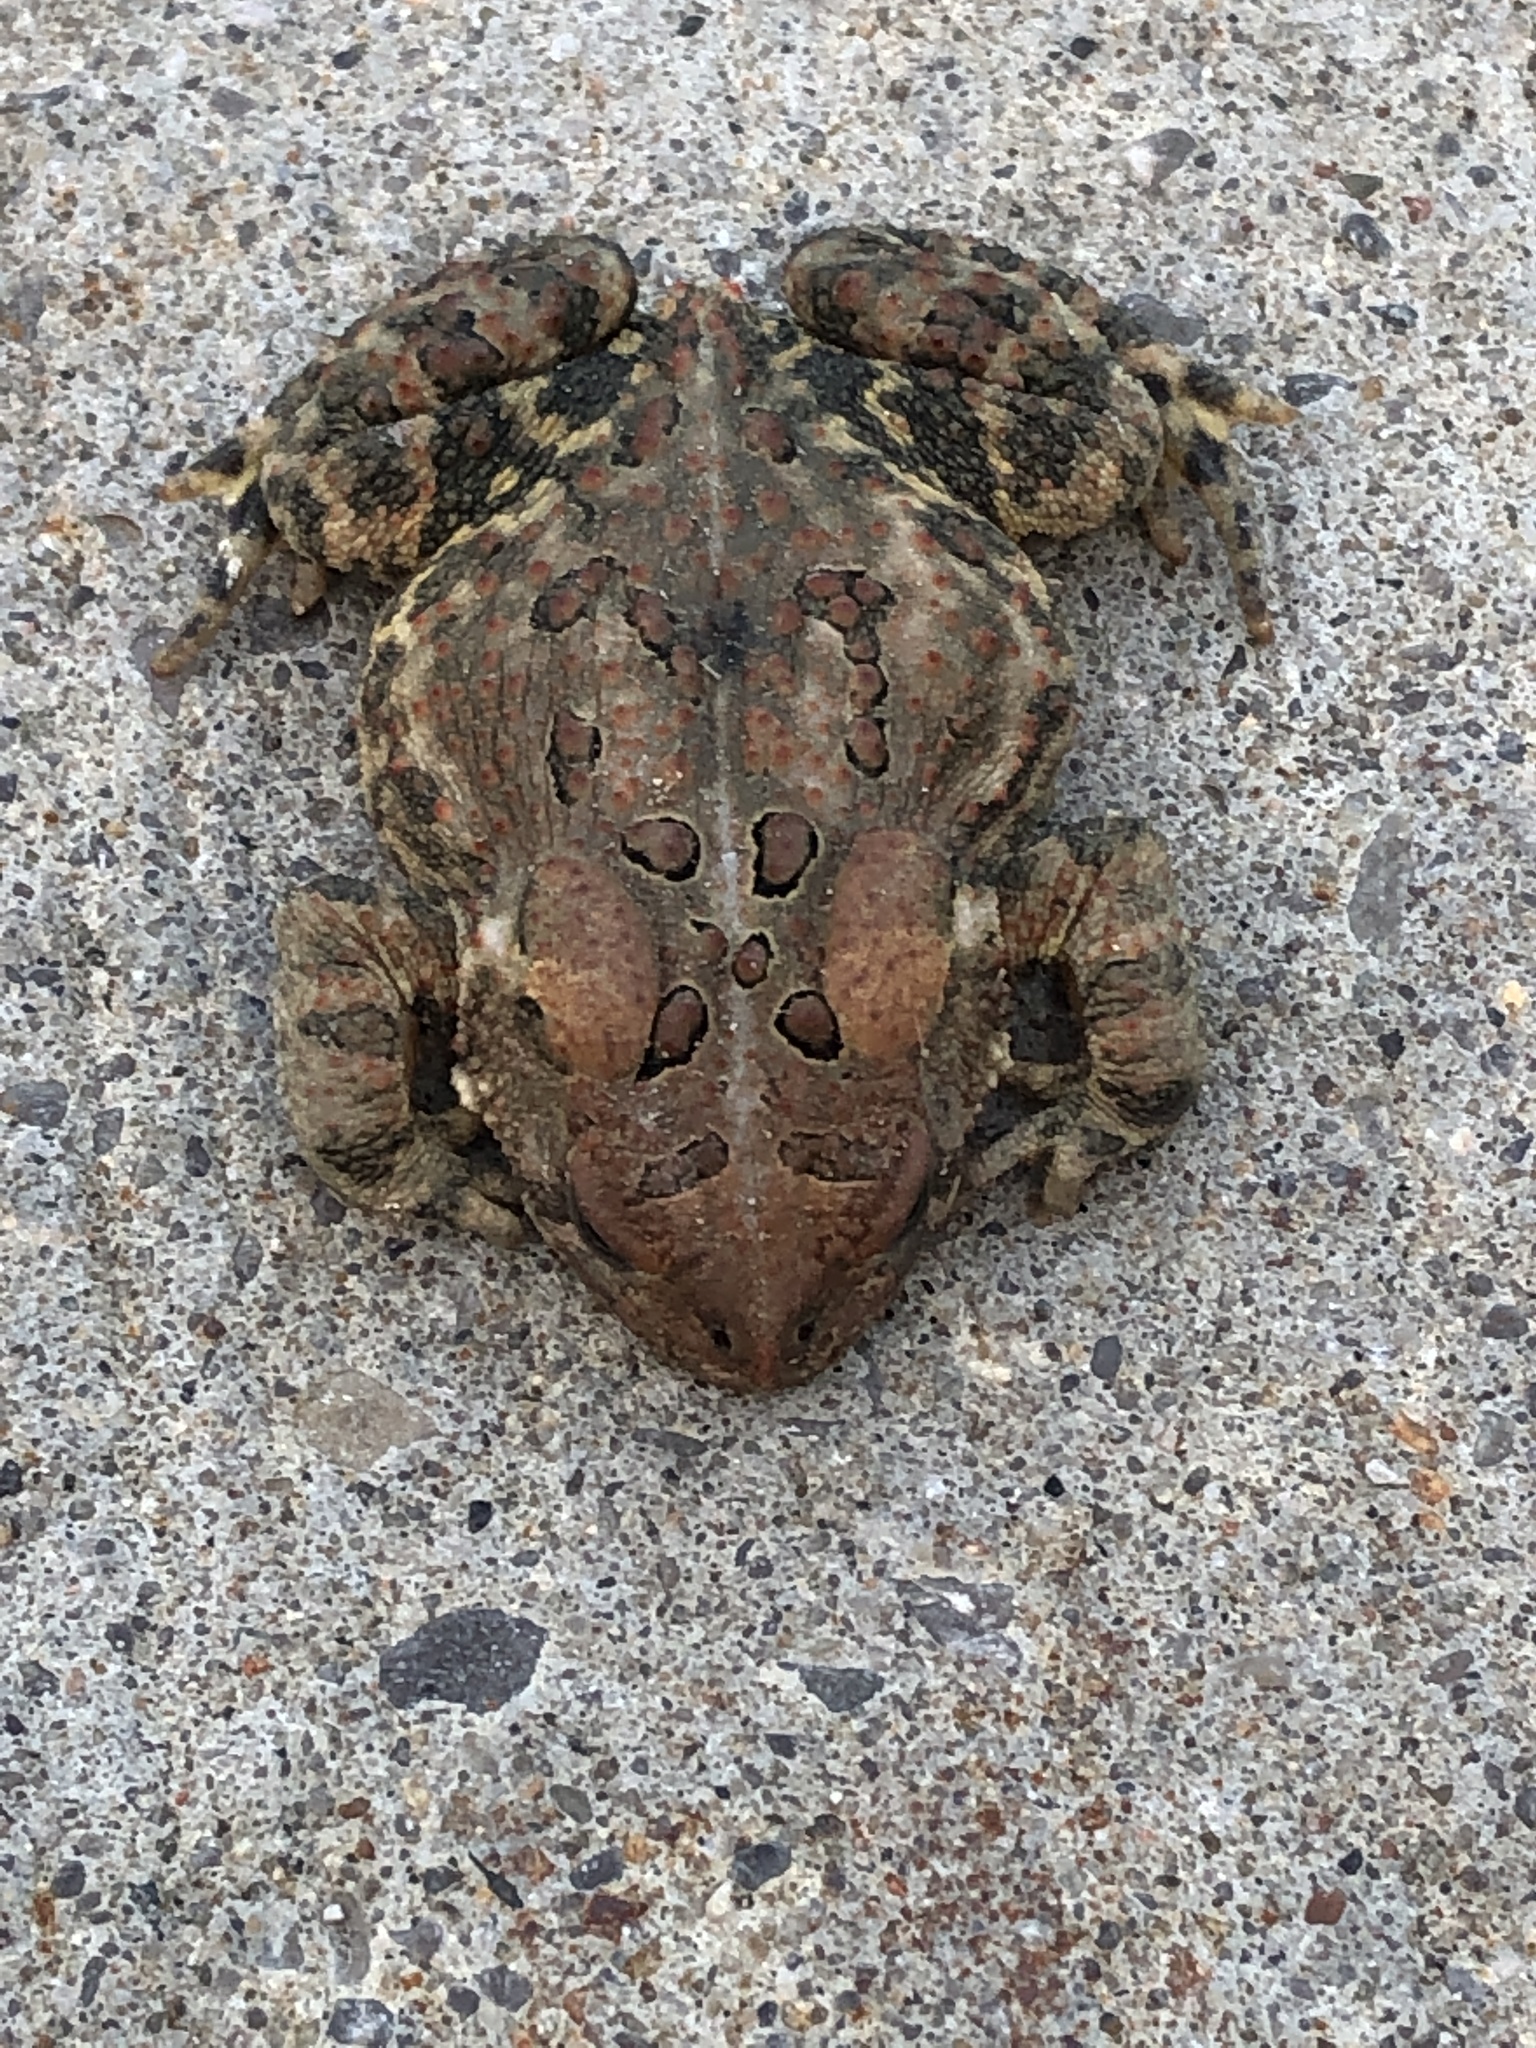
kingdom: Animalia
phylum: Chordata
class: Amphibia
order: Anura
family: Bufonidae
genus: Anaxyrus
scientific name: Anaxyrus americanus
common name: American toad
